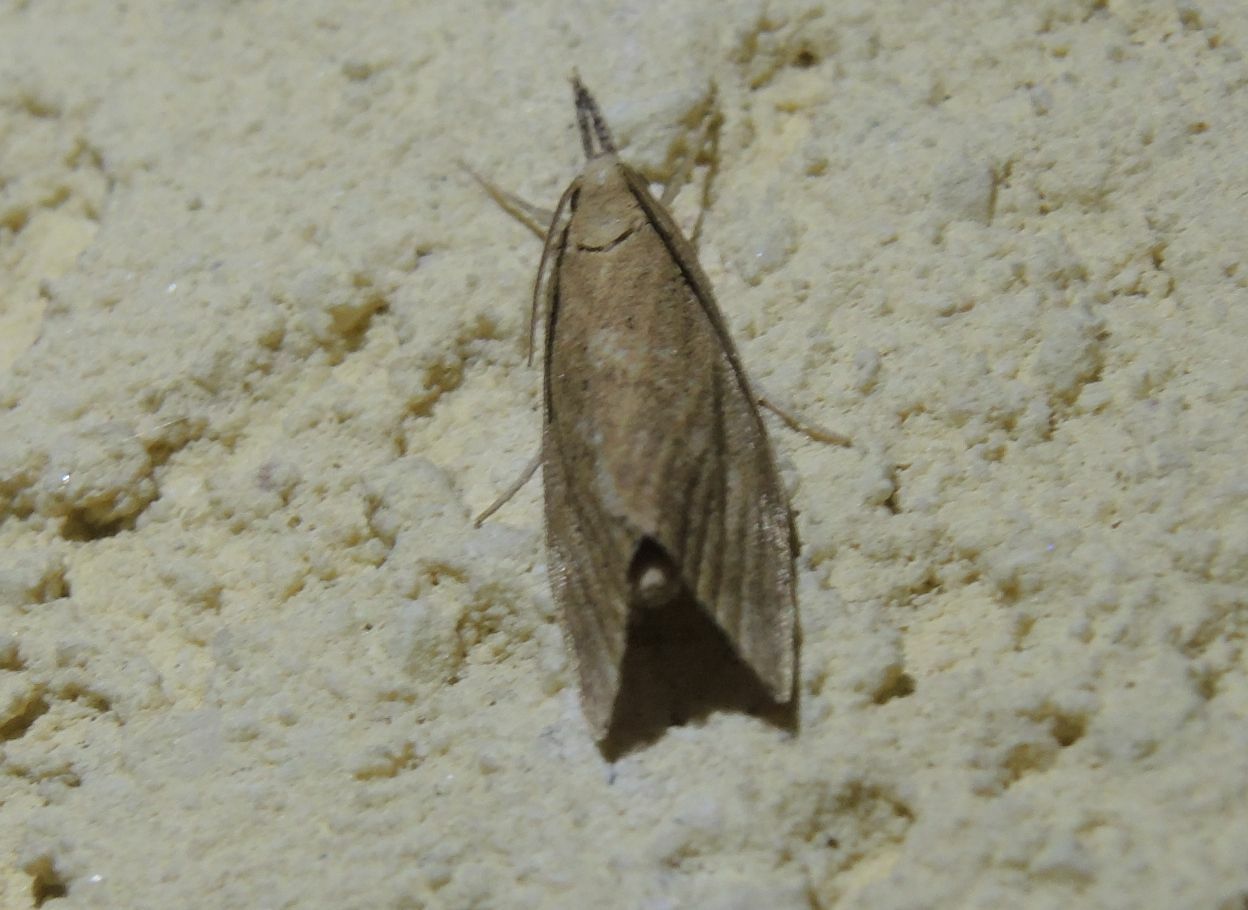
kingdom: Animalia
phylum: Arthropoda
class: Insecta
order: Lepidoptera
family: Crambidae
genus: Chilo
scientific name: Chilo phragmitella
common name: Reed veneer
